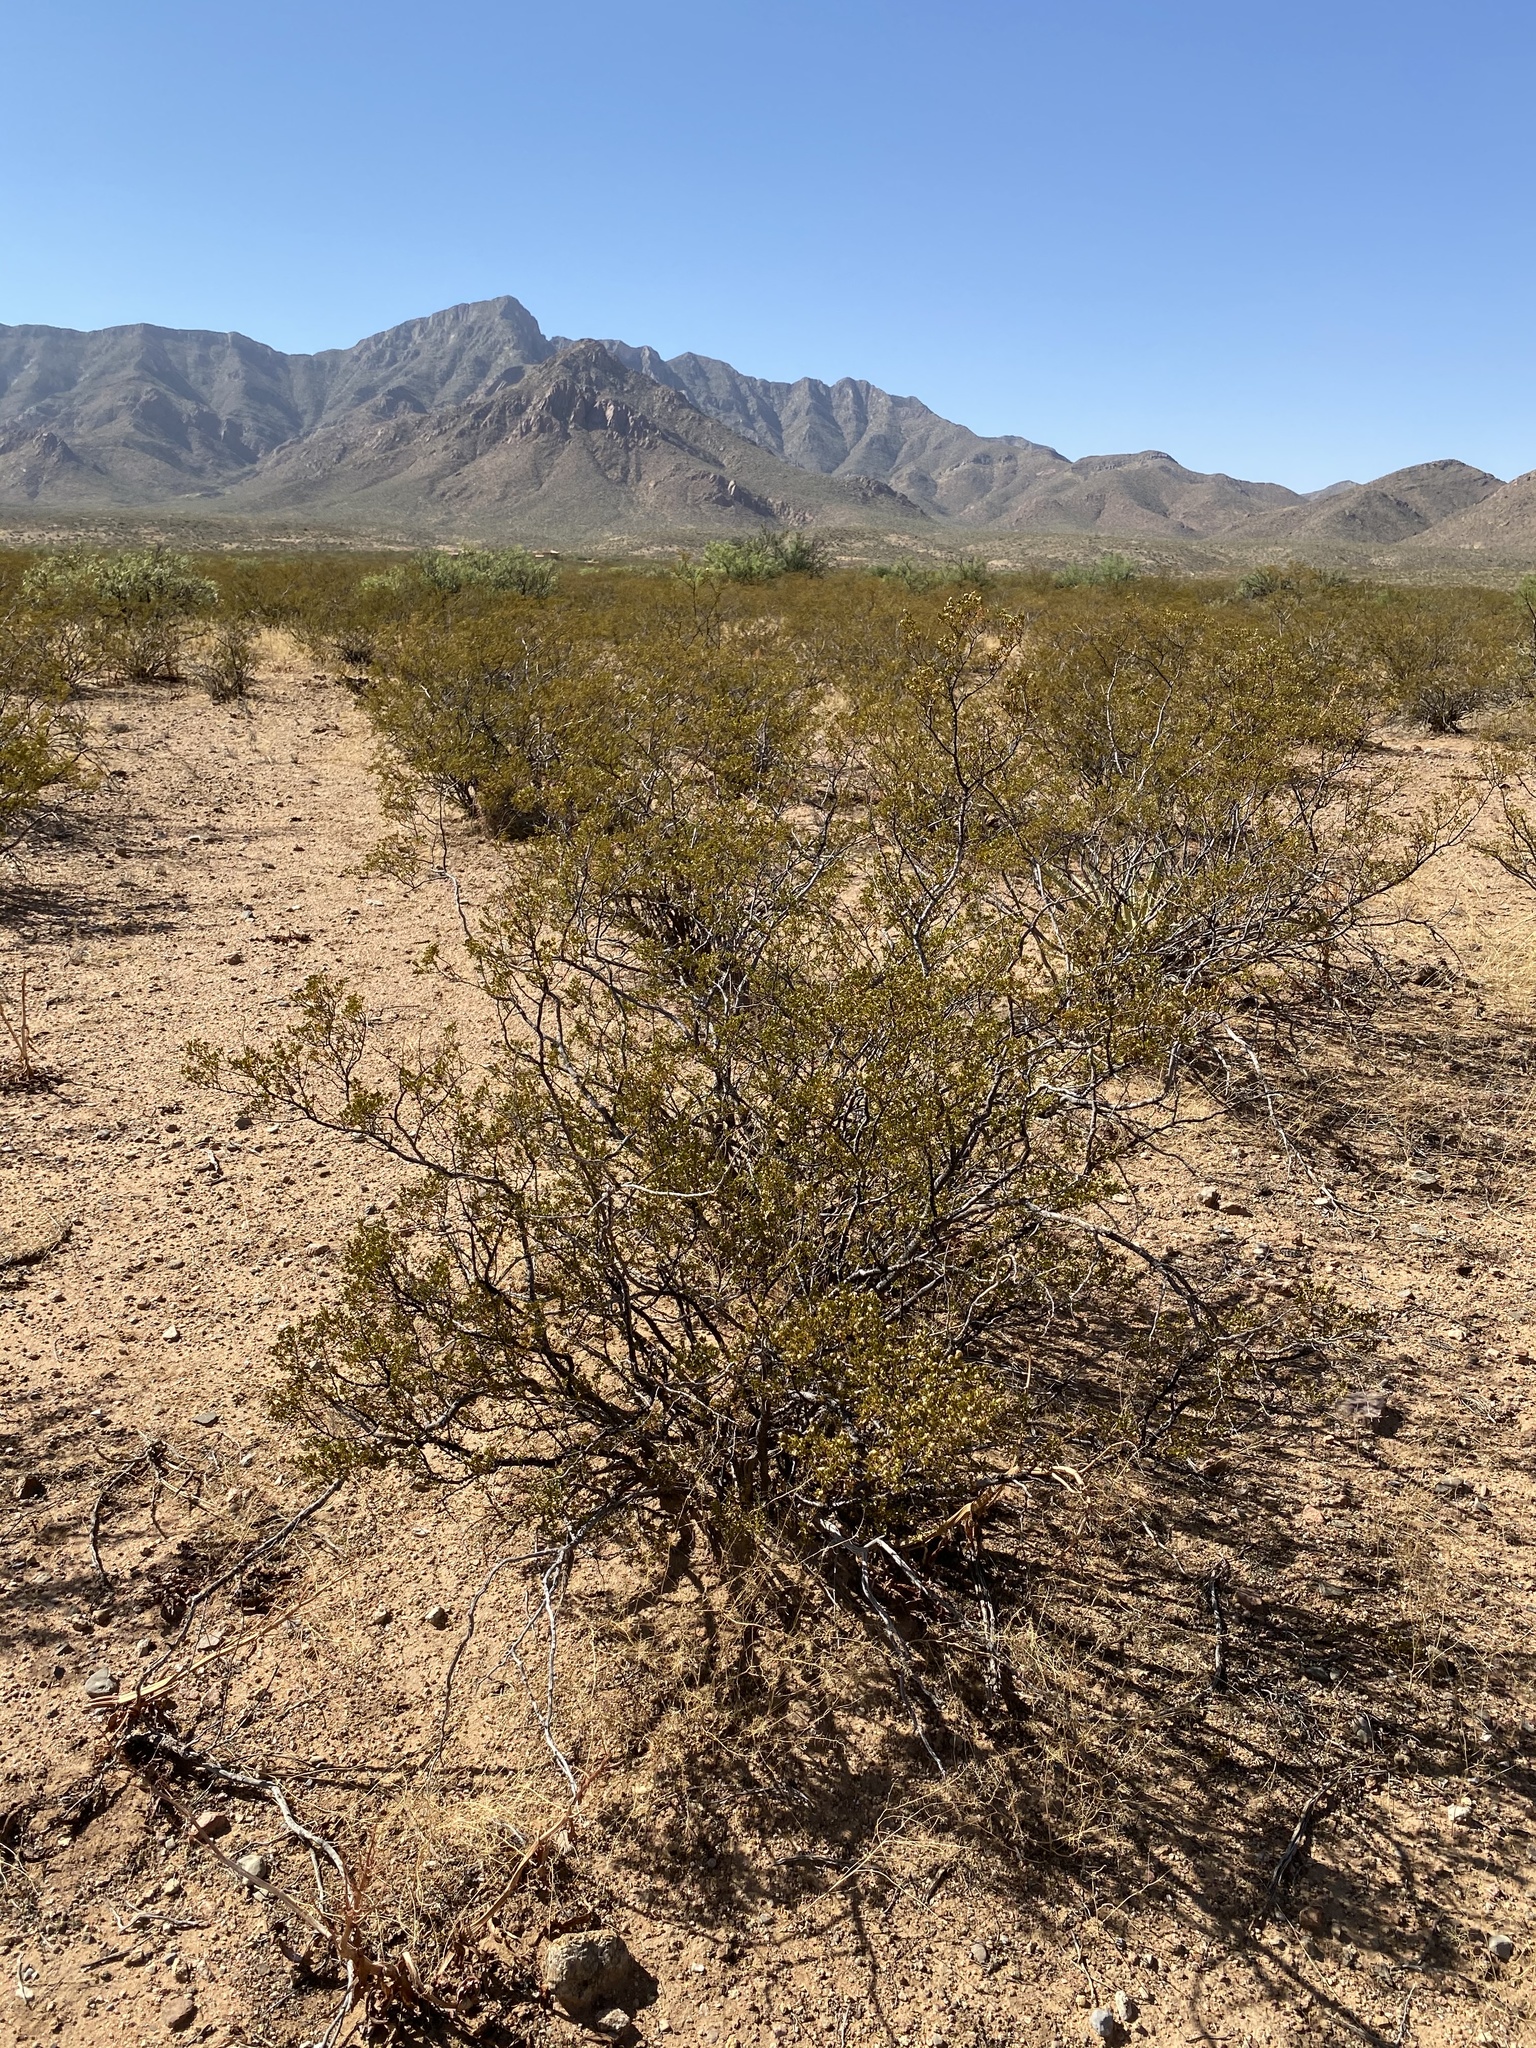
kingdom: Plantae
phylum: Tracheophyta
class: Magnoliopsida
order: Zygophyllales
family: Zygophyllaceae
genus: Larrea
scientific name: Larrea tridentata
